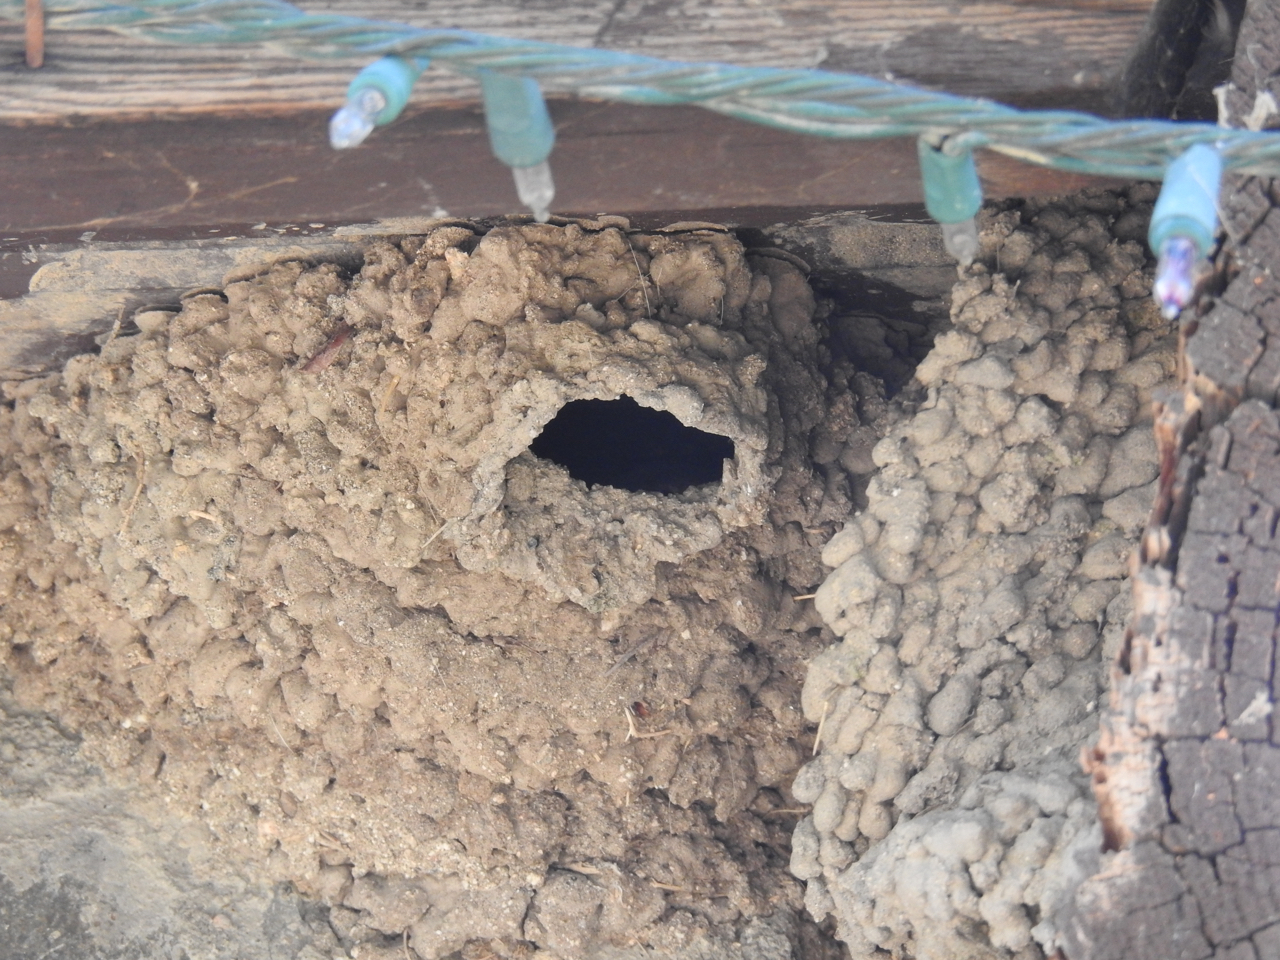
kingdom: Animalia
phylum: Chordata
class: Aves
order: Passeriformes
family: Hirundinidae
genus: Petrochelidon
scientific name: Petrochelidon pyrrhonota
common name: American cliff swallow
